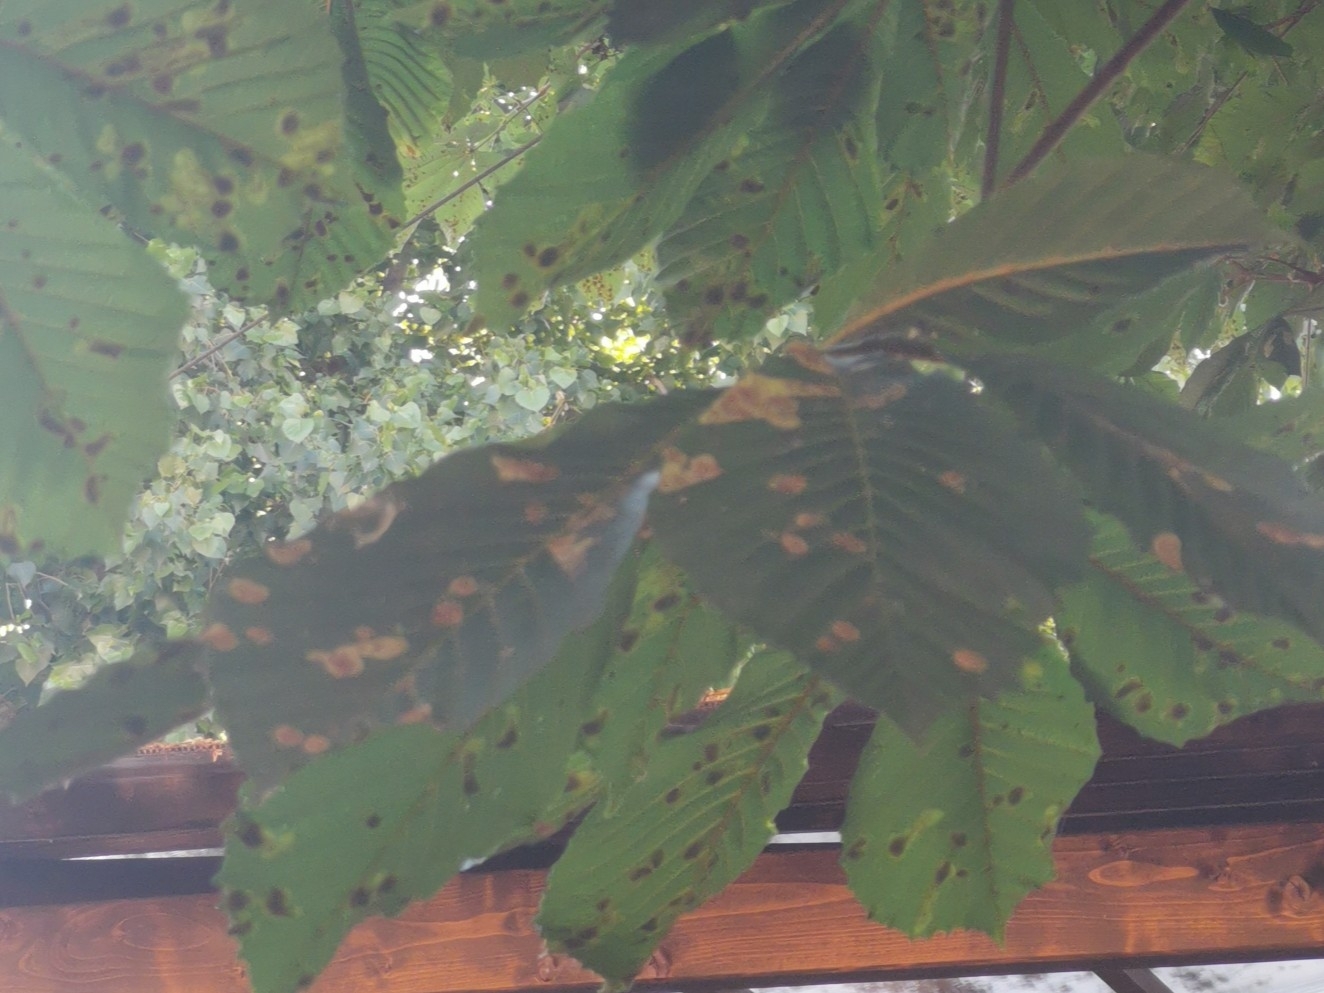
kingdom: Animalia
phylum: Arthropoda
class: Insecta
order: Lepidoptera
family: Gracillariidae
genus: Cameraria
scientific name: Cameraria ohridella
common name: Horse-chestnut leaf-miner
